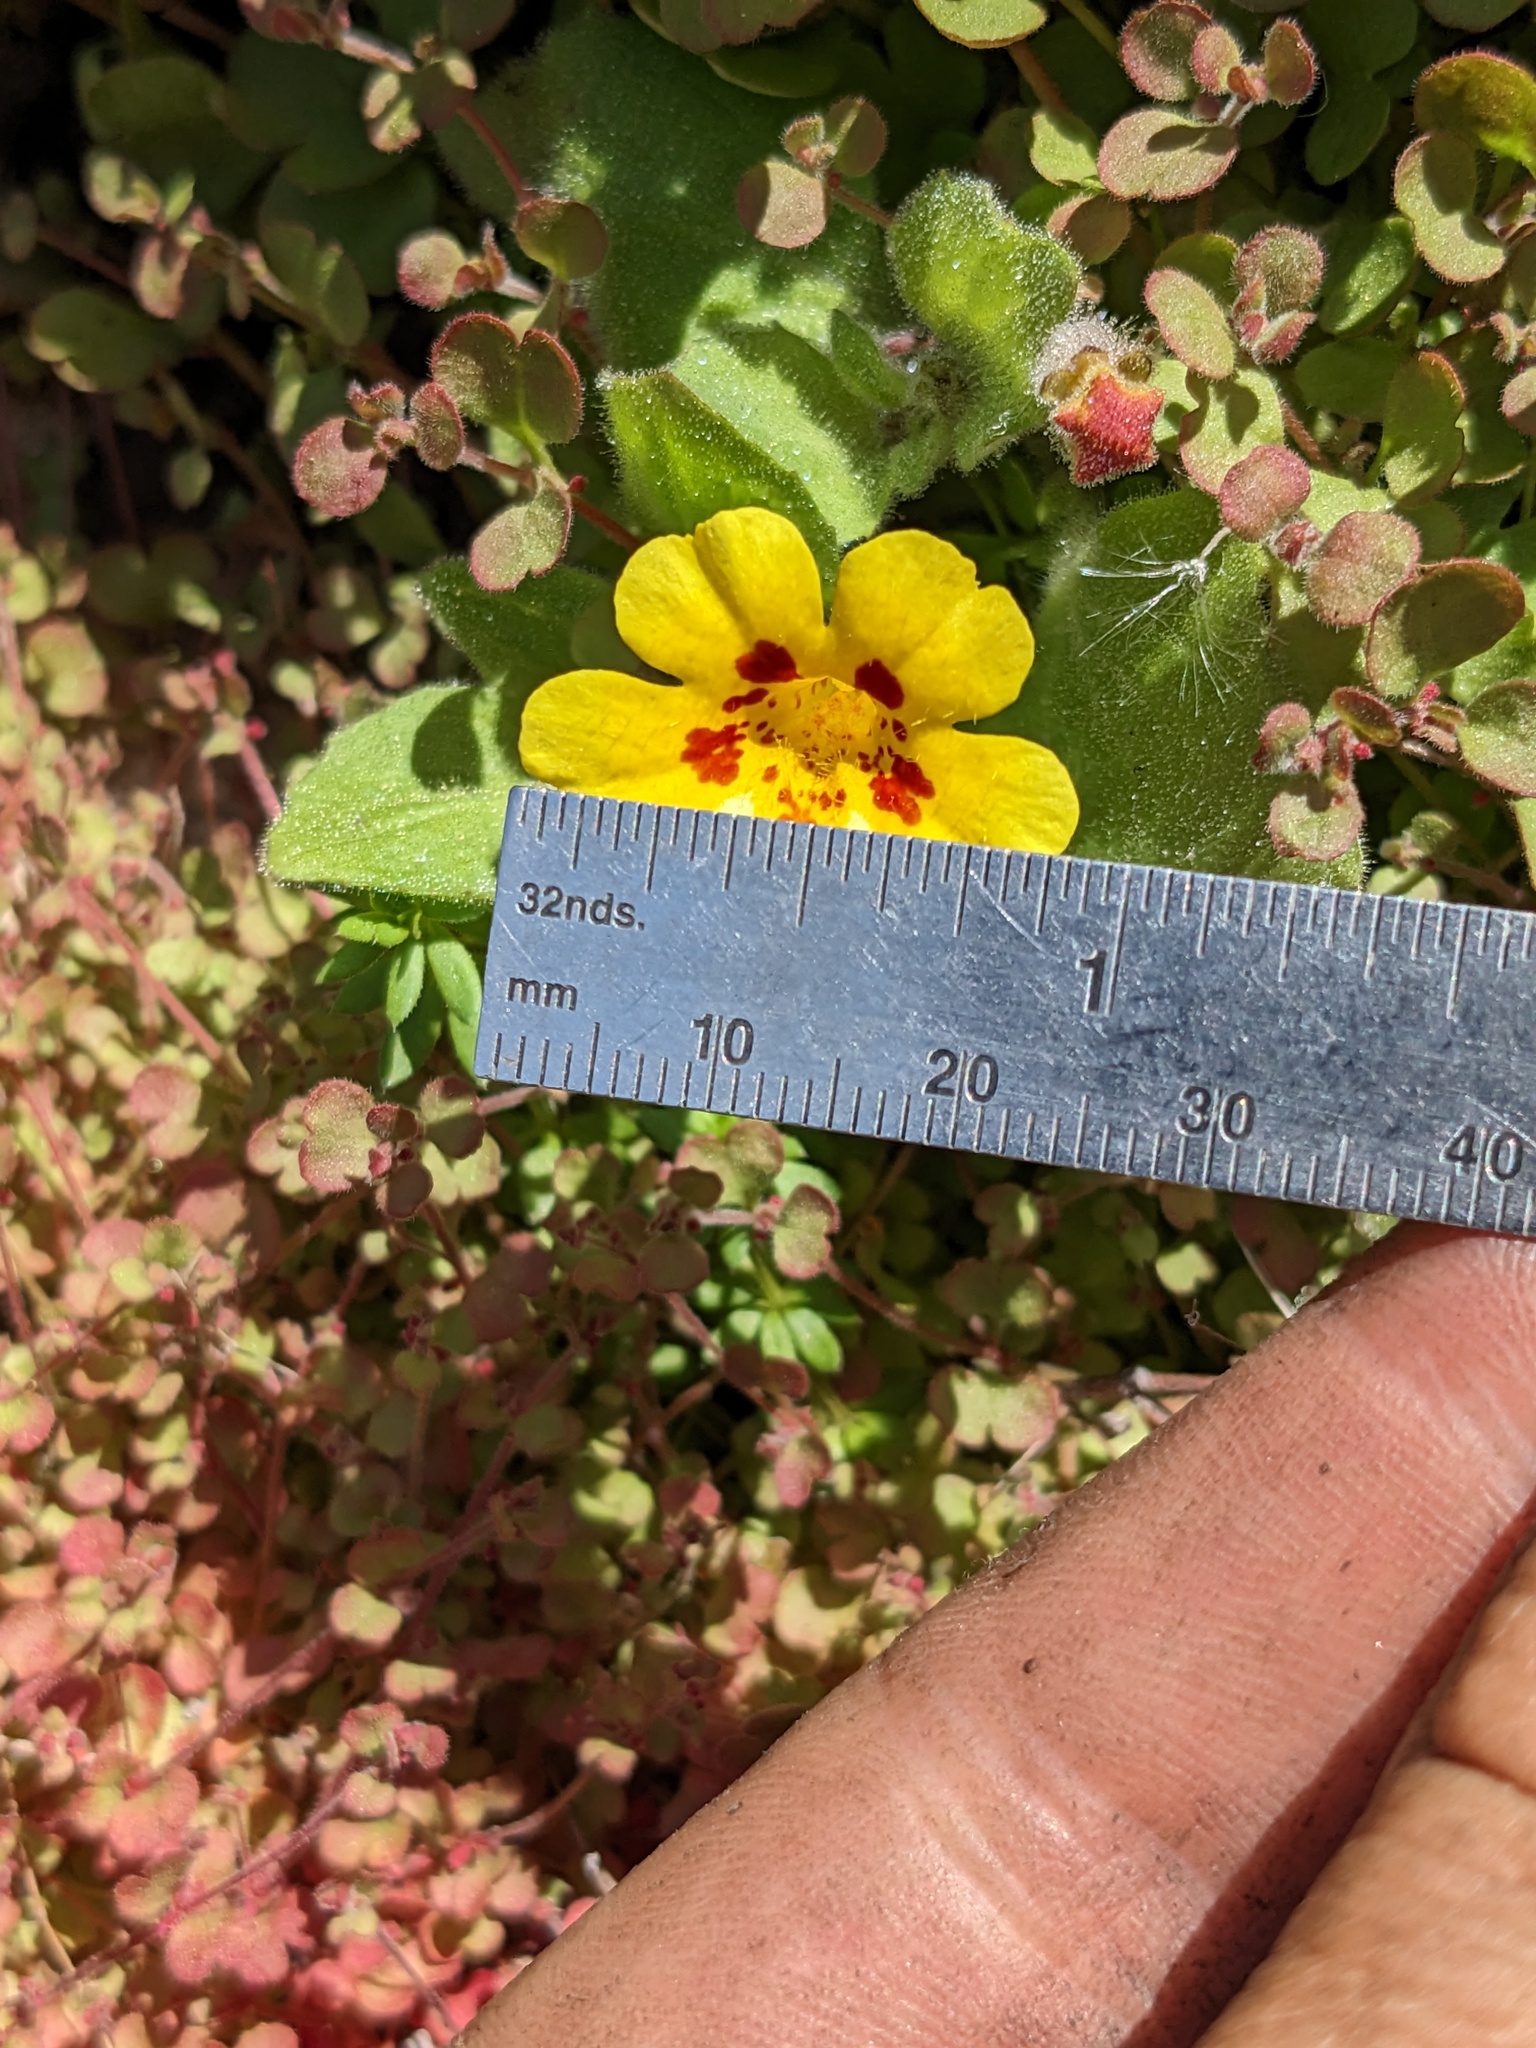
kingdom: Plantae
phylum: Tracheophyta
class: Magnoliopsida
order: Lamiales
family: Phrymaceae
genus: Erythranthe
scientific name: Erythranthe norrisii
